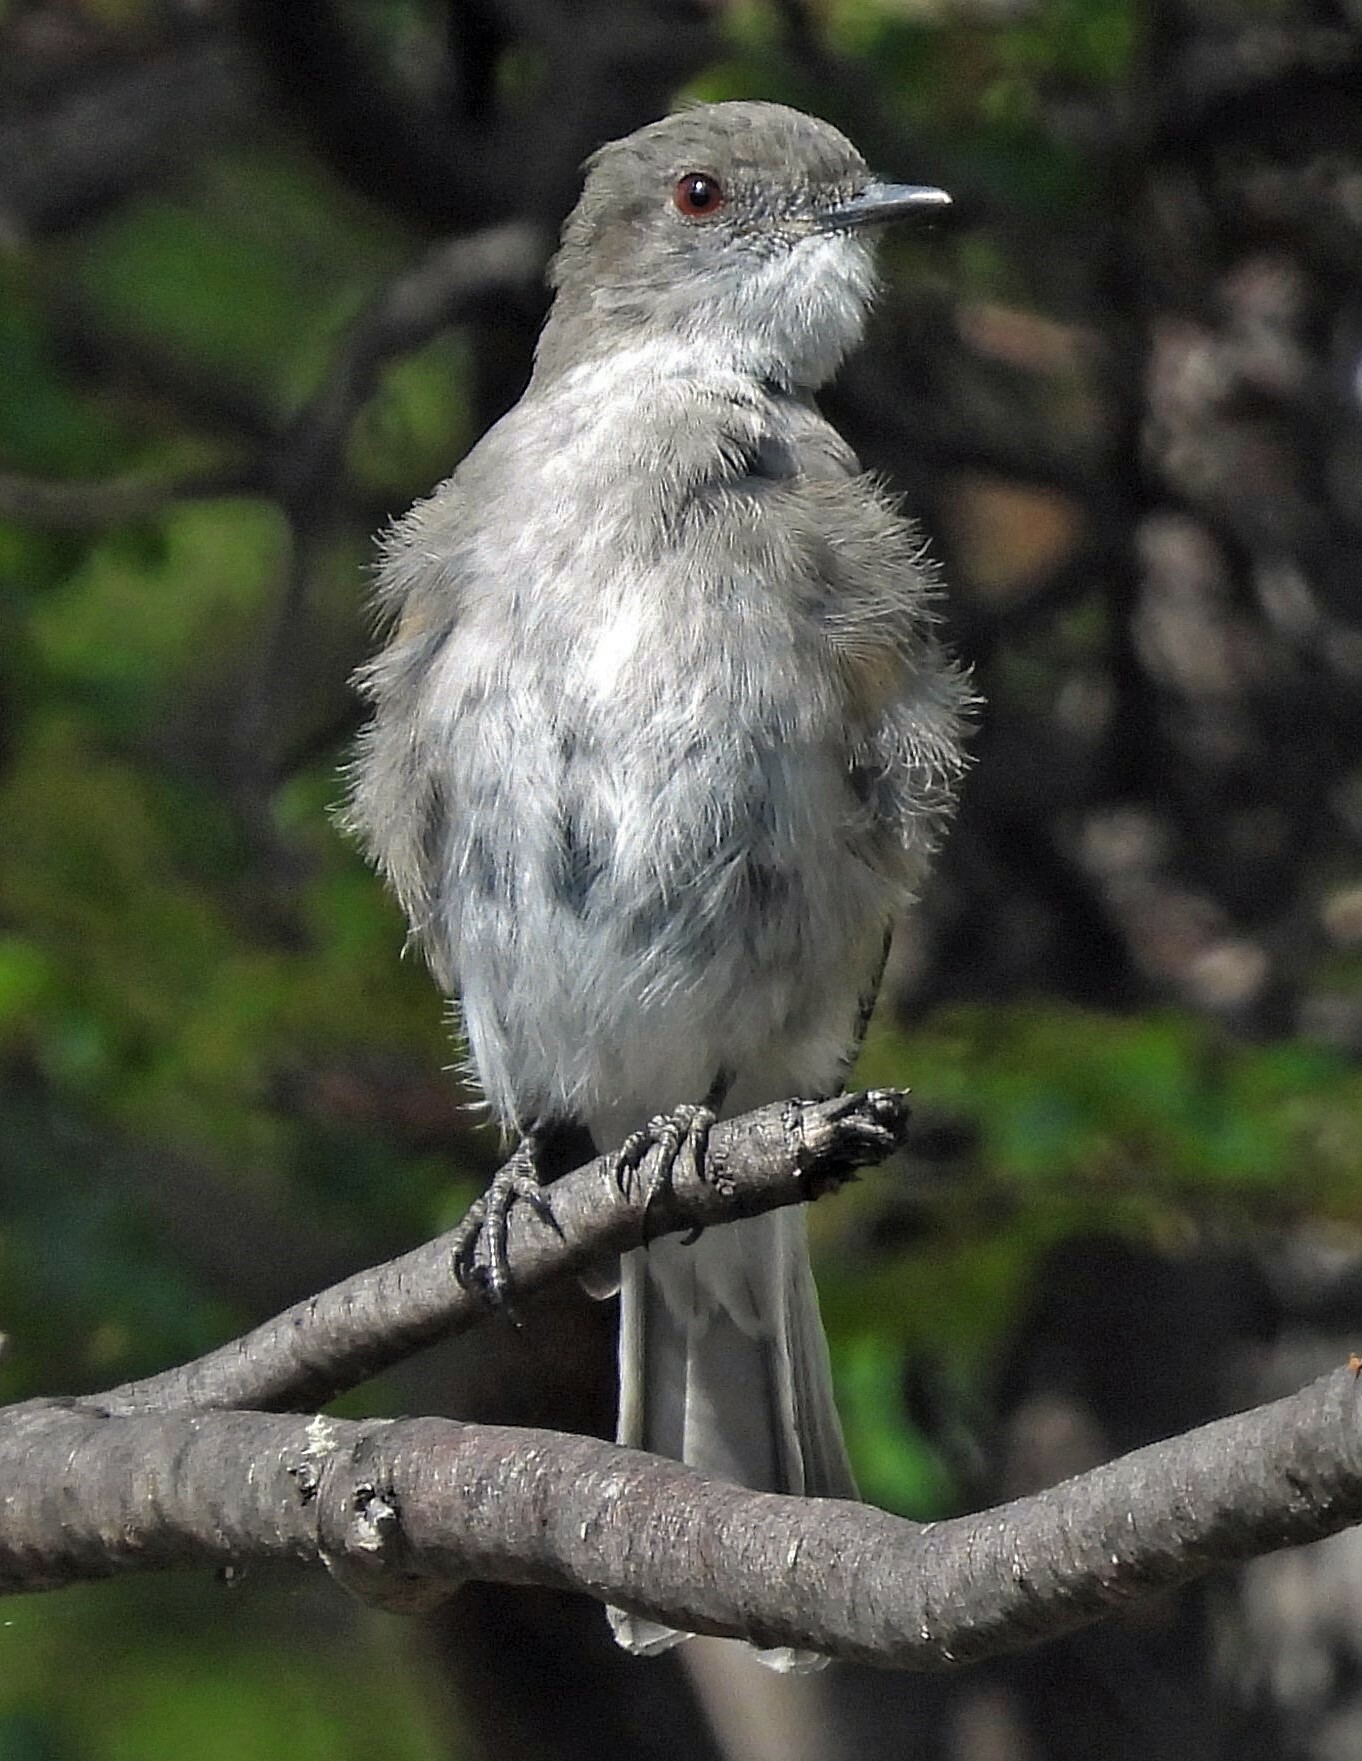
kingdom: Animalia
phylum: Chordata
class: Aves
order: Passeriformes
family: Tyrannidae
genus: Xolmis
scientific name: Xolmis pyrope
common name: Fire-eyed diucon
